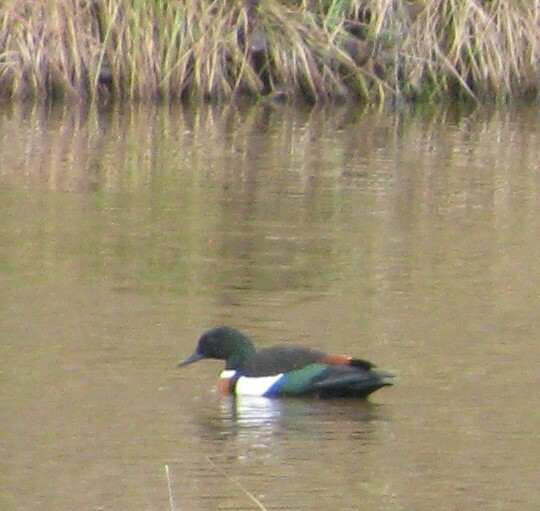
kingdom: Animalia
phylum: Chordata
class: Aves
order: Anseriformes
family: Anatidae
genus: Tadorna
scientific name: Tadorna tadornoides
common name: Australian shelduck
